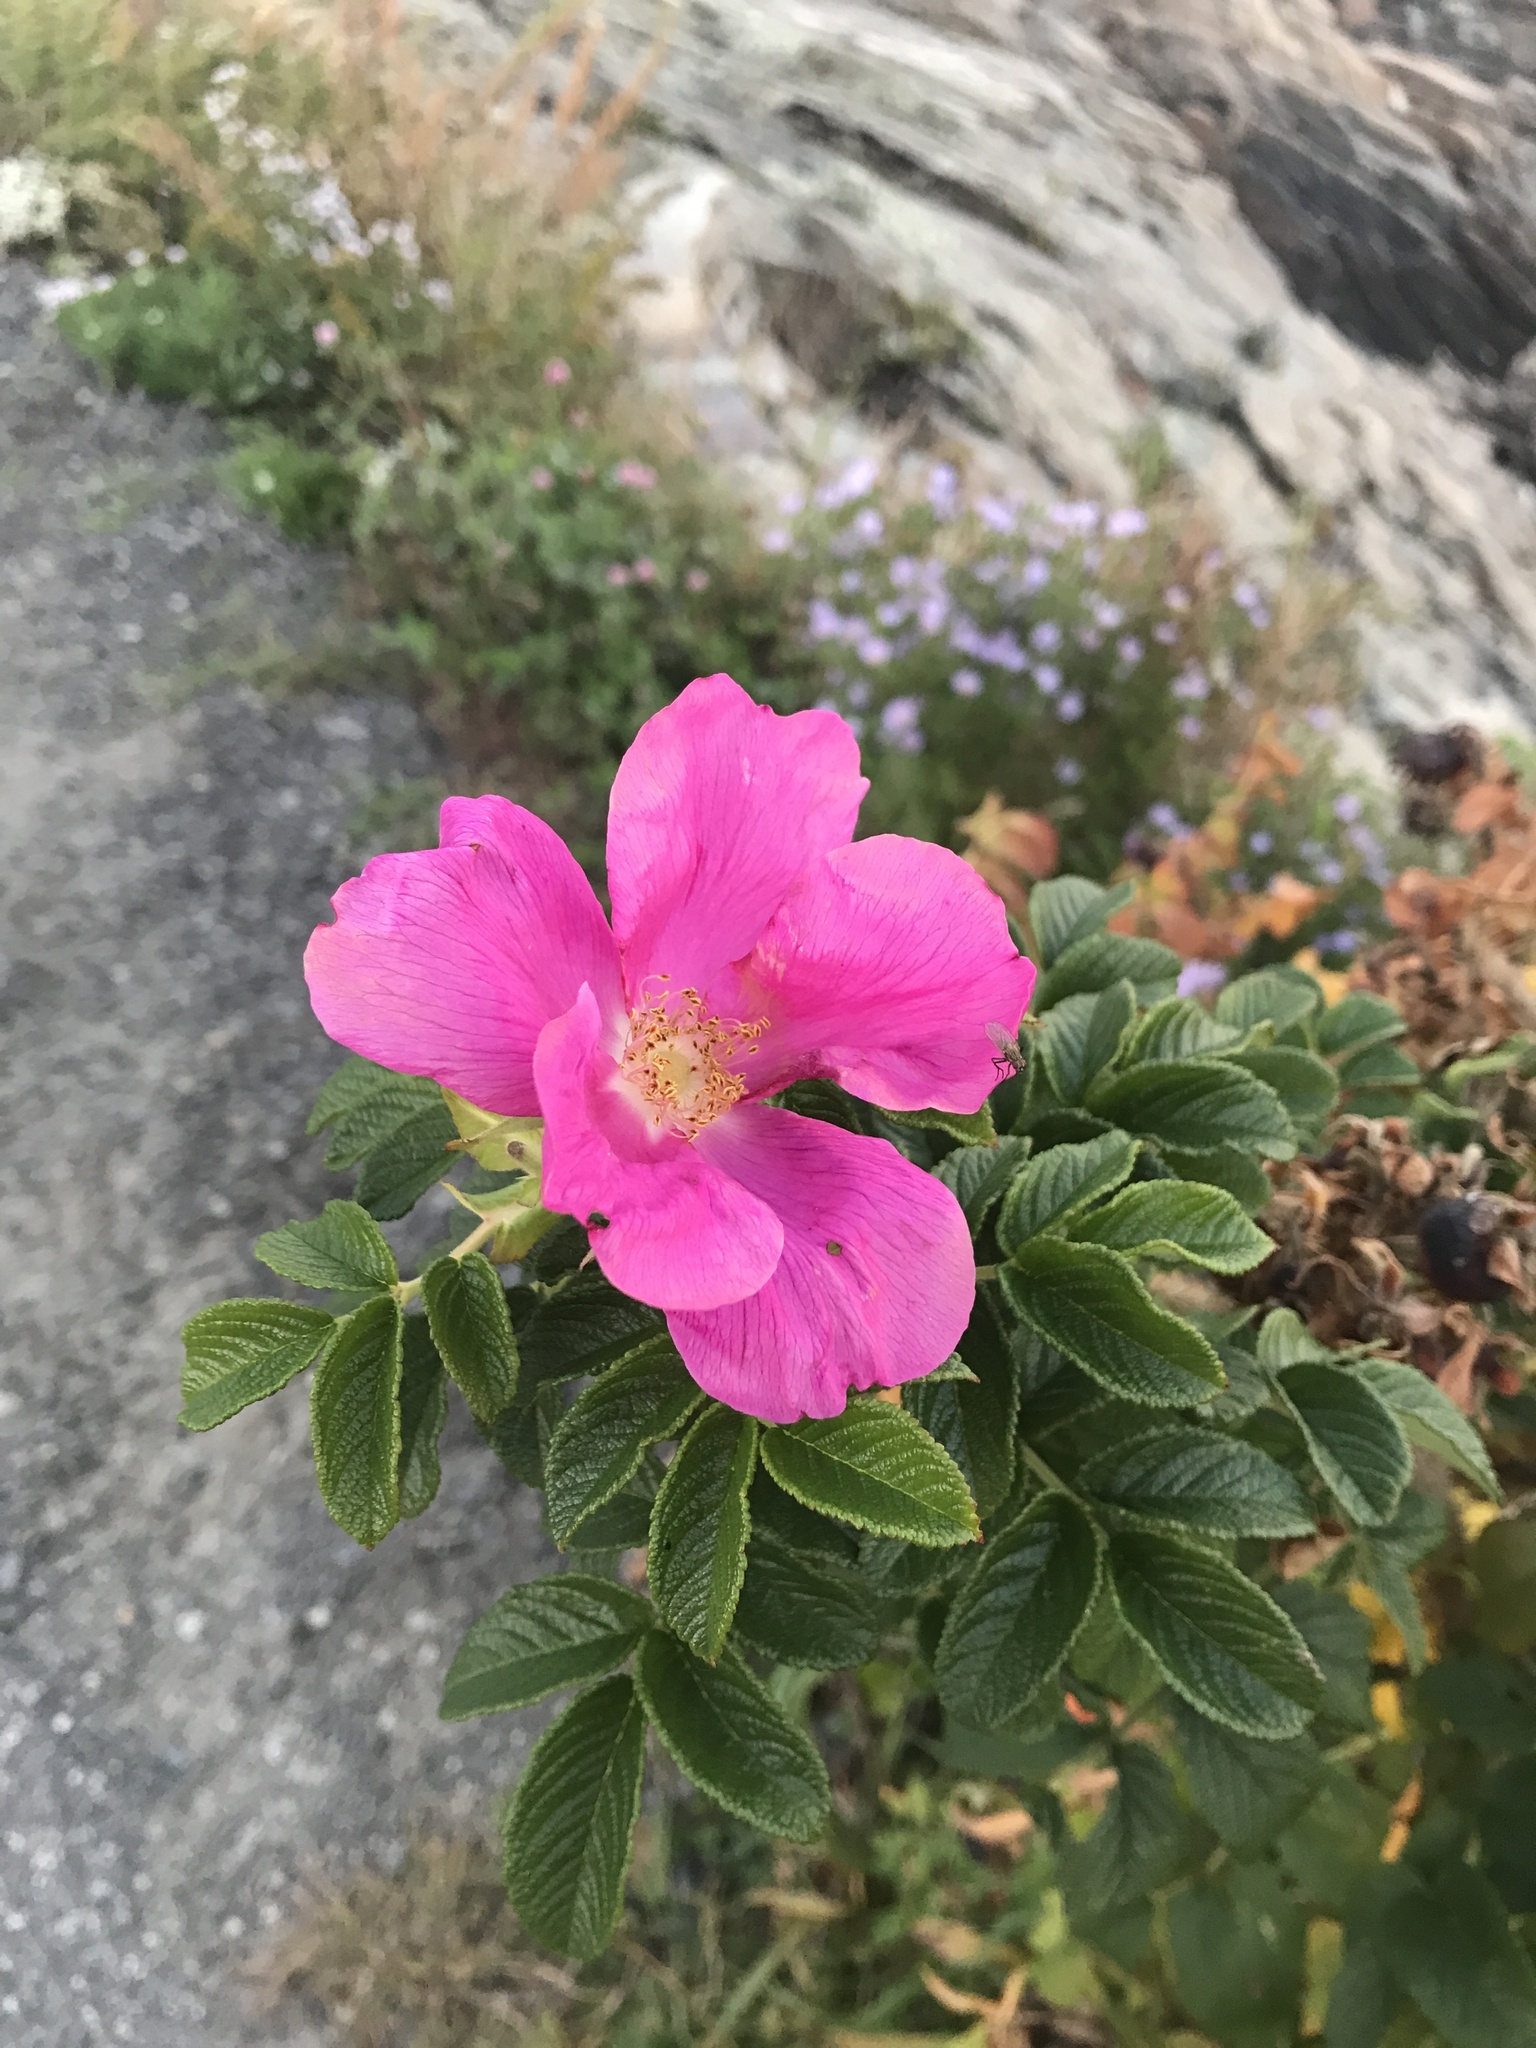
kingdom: Plantae
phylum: Tracheophyta
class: Magnoliopsida
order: Rosales
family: Rosaceae
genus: Rosa
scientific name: Rosa rugosa
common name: Japanese rose
